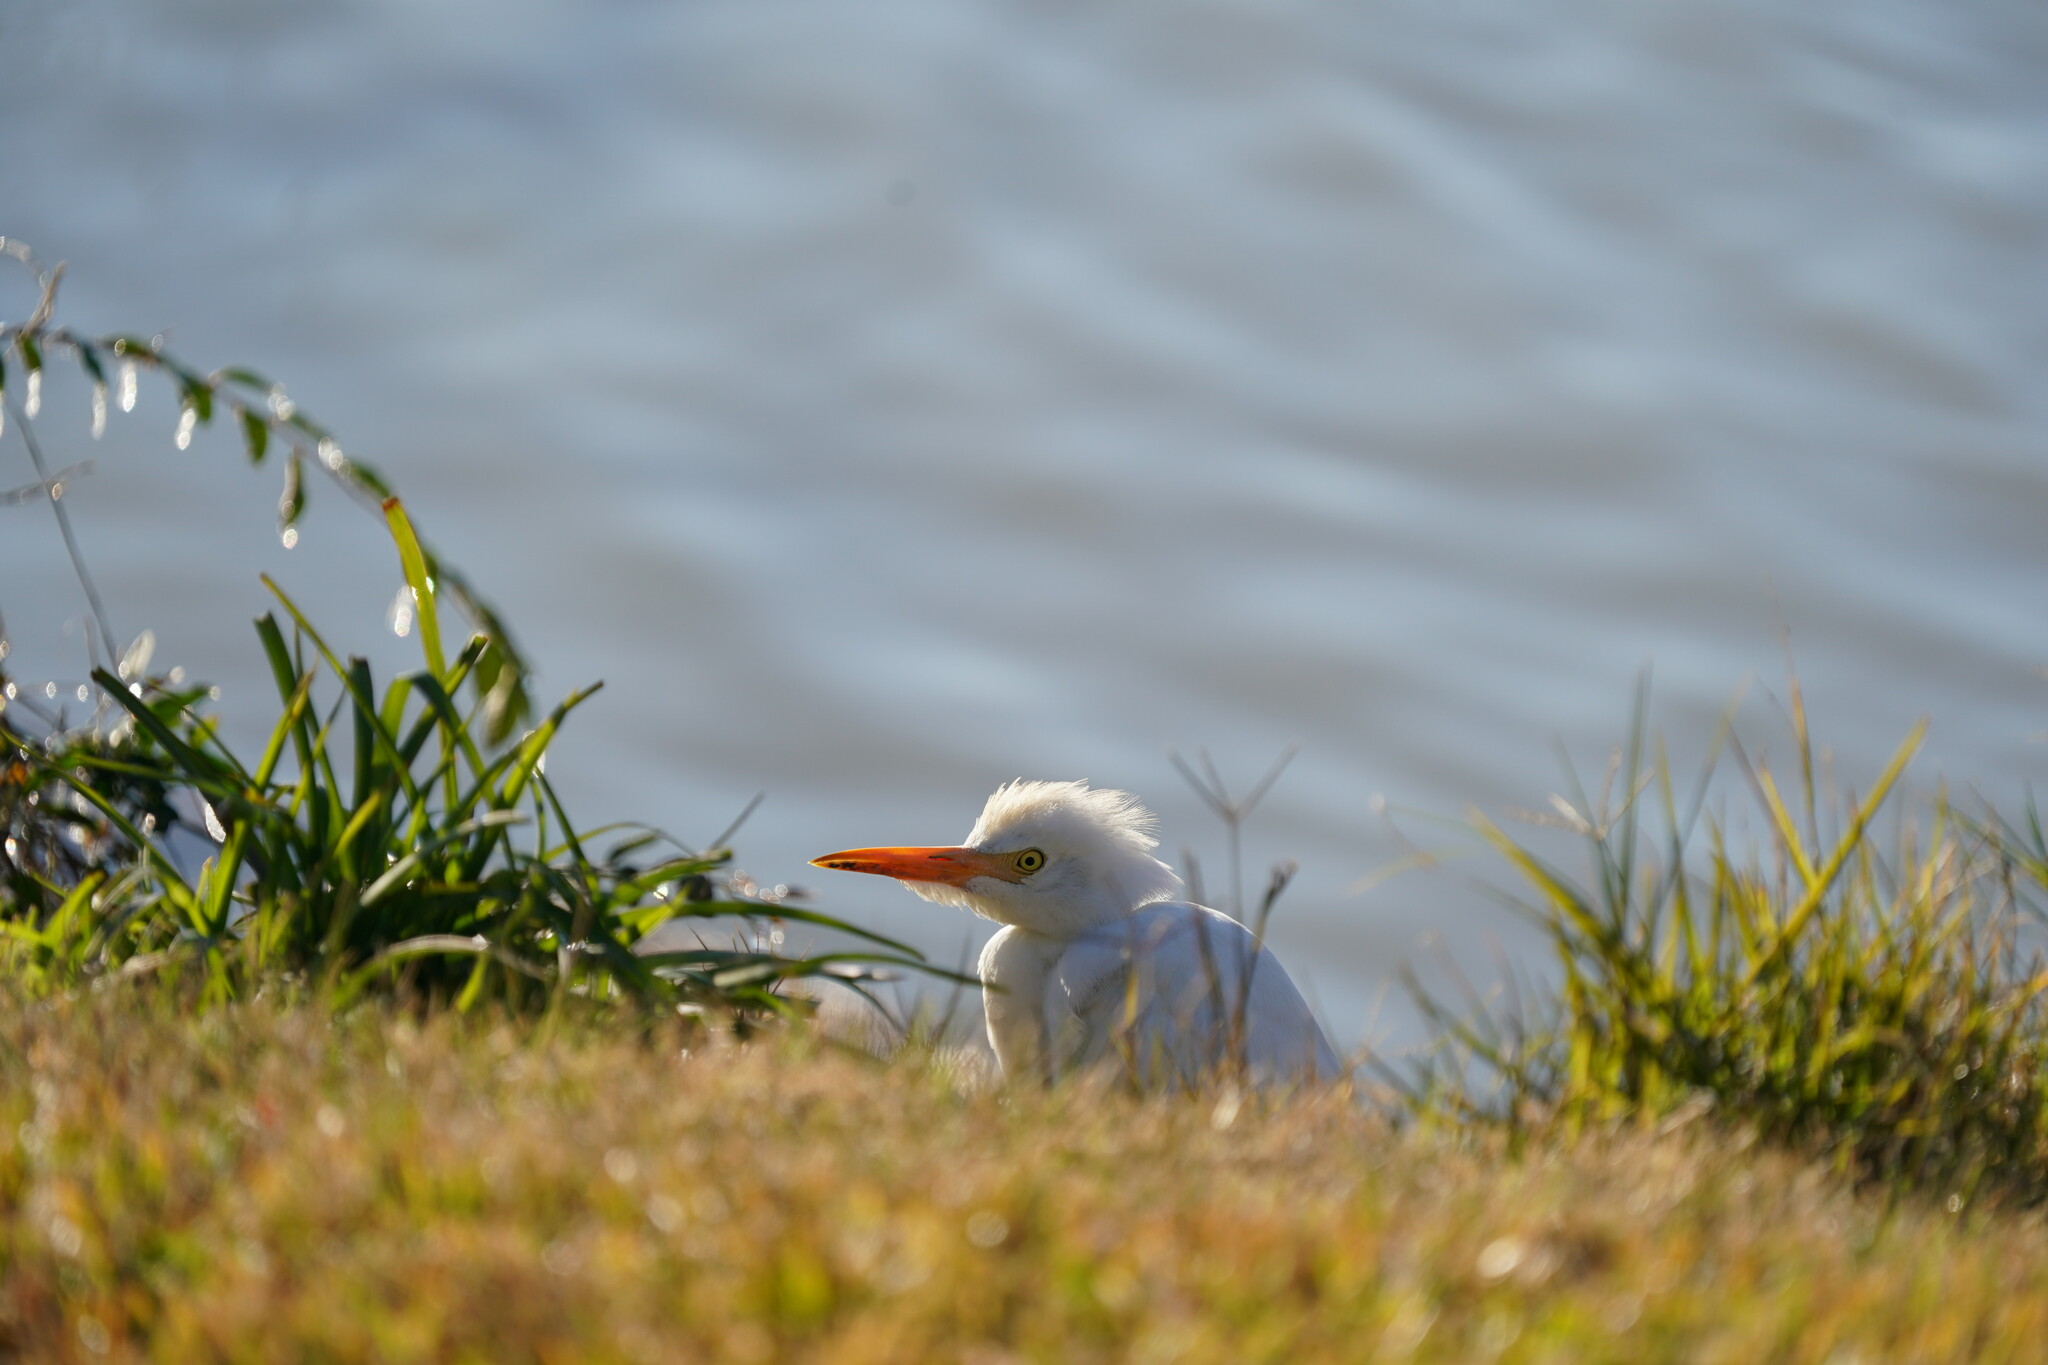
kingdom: Animalia
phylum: Chordata
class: Aves
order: Pelecaniformes
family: Ardeidae
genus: Bubulcus
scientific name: Bubulcus ibis
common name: Cattle egret
